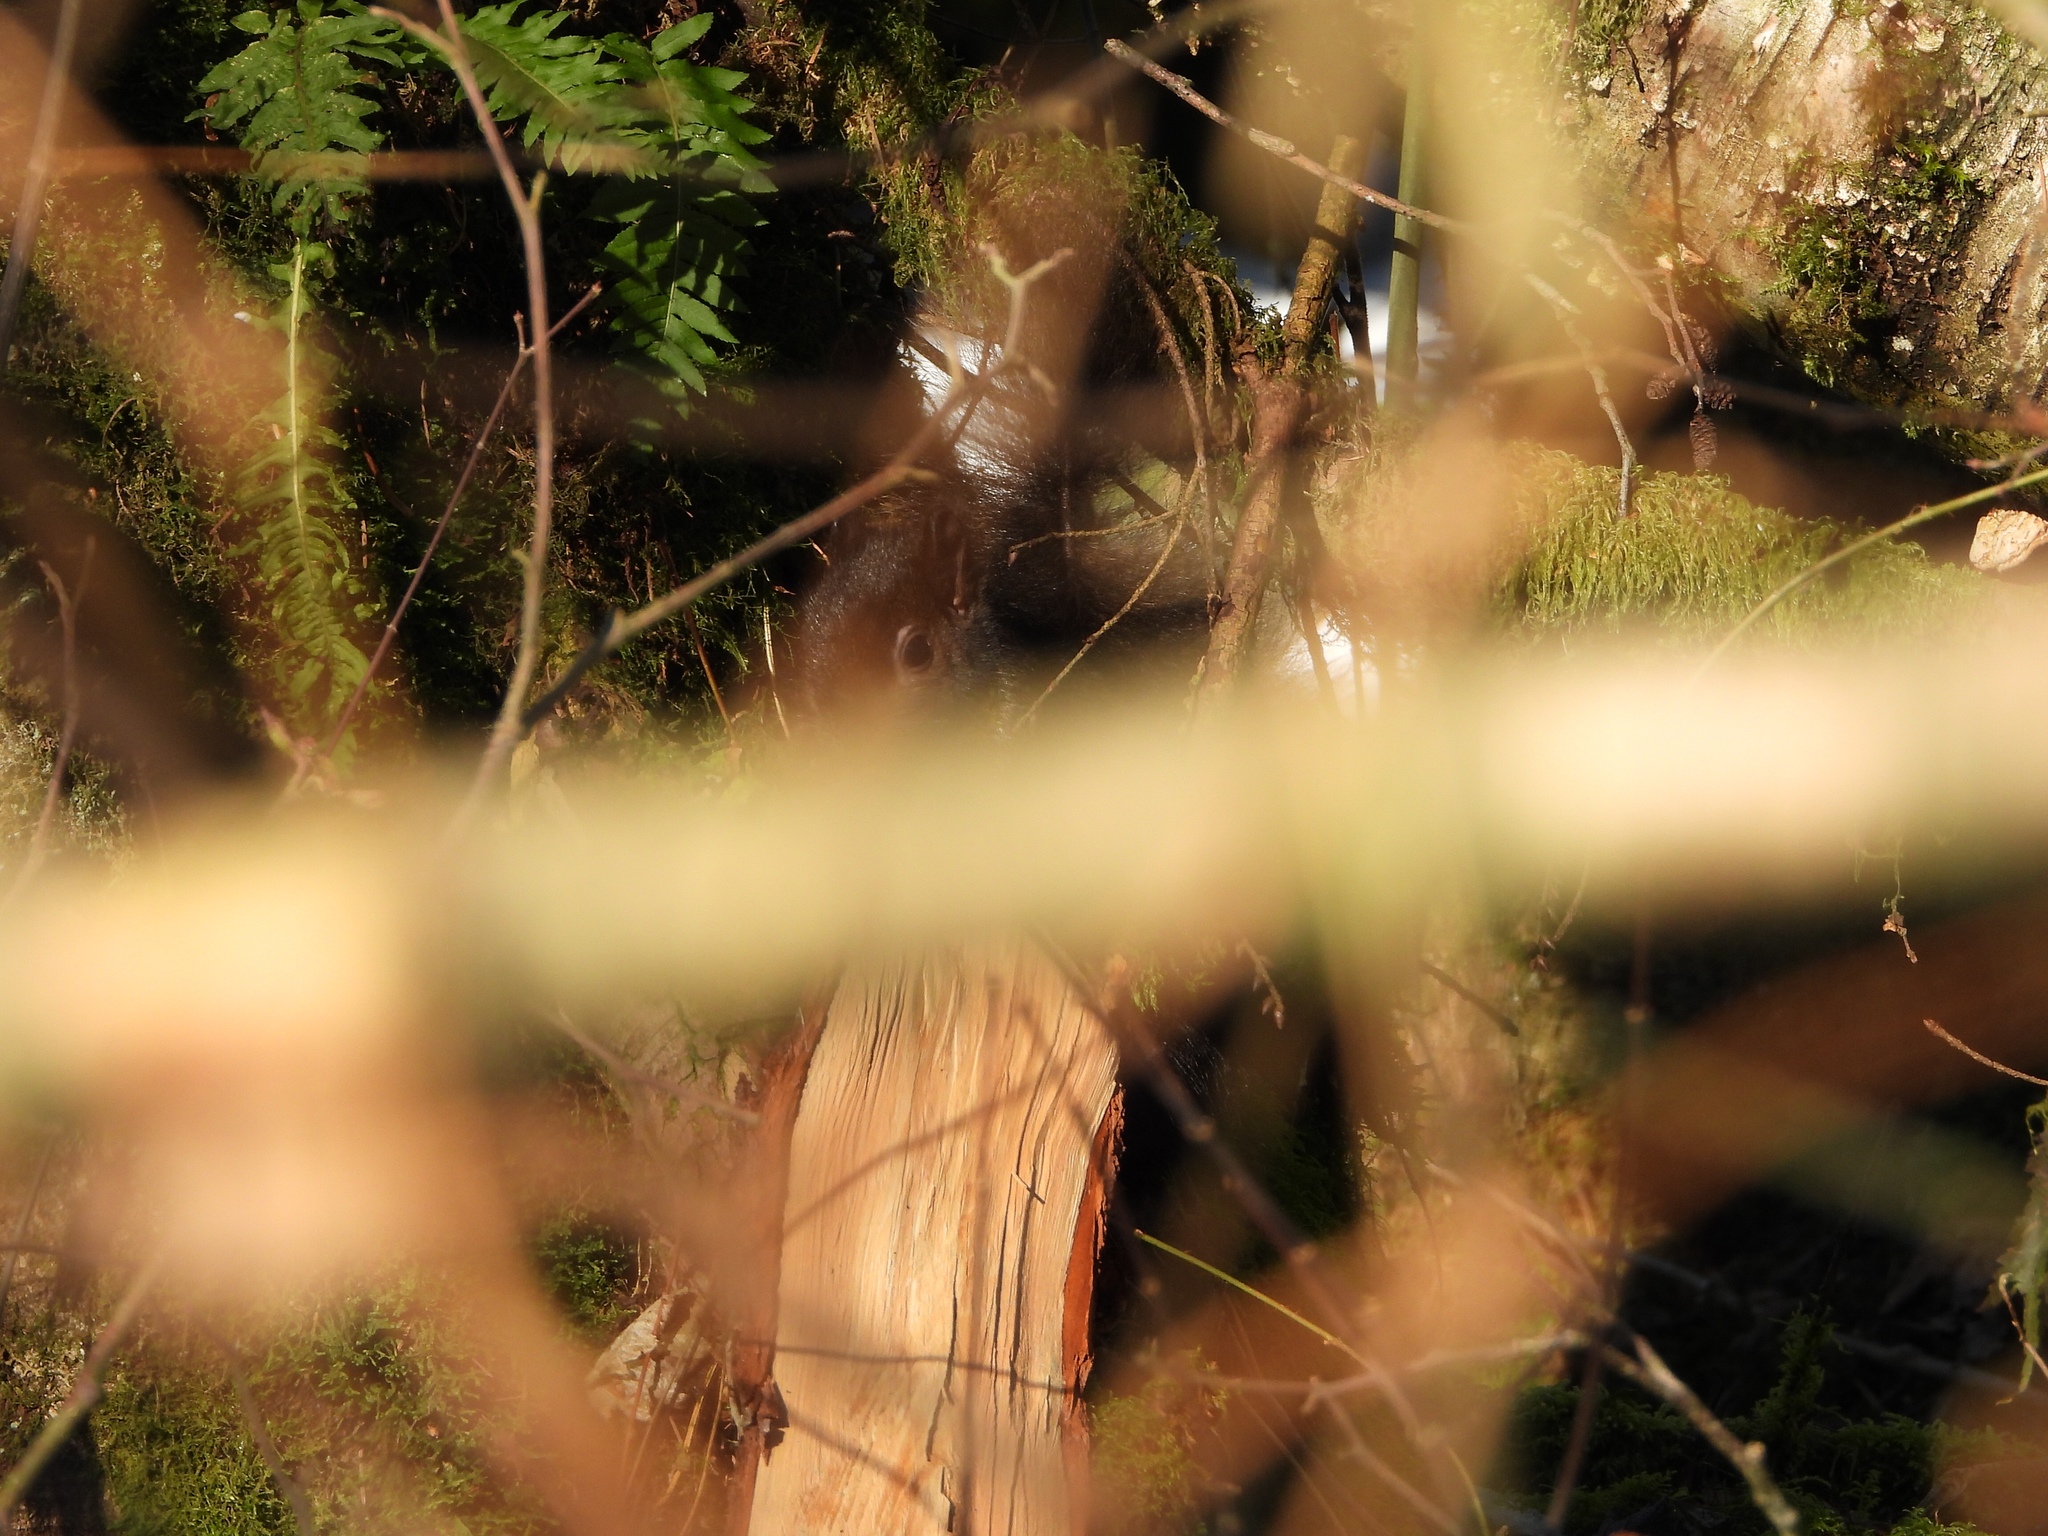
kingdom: Animalia
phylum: Chordata
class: Mammalia
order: Rodentia
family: Sciuridae
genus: Sciurus
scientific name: Sciurus carolinensis
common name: Eastern gray squirrel
